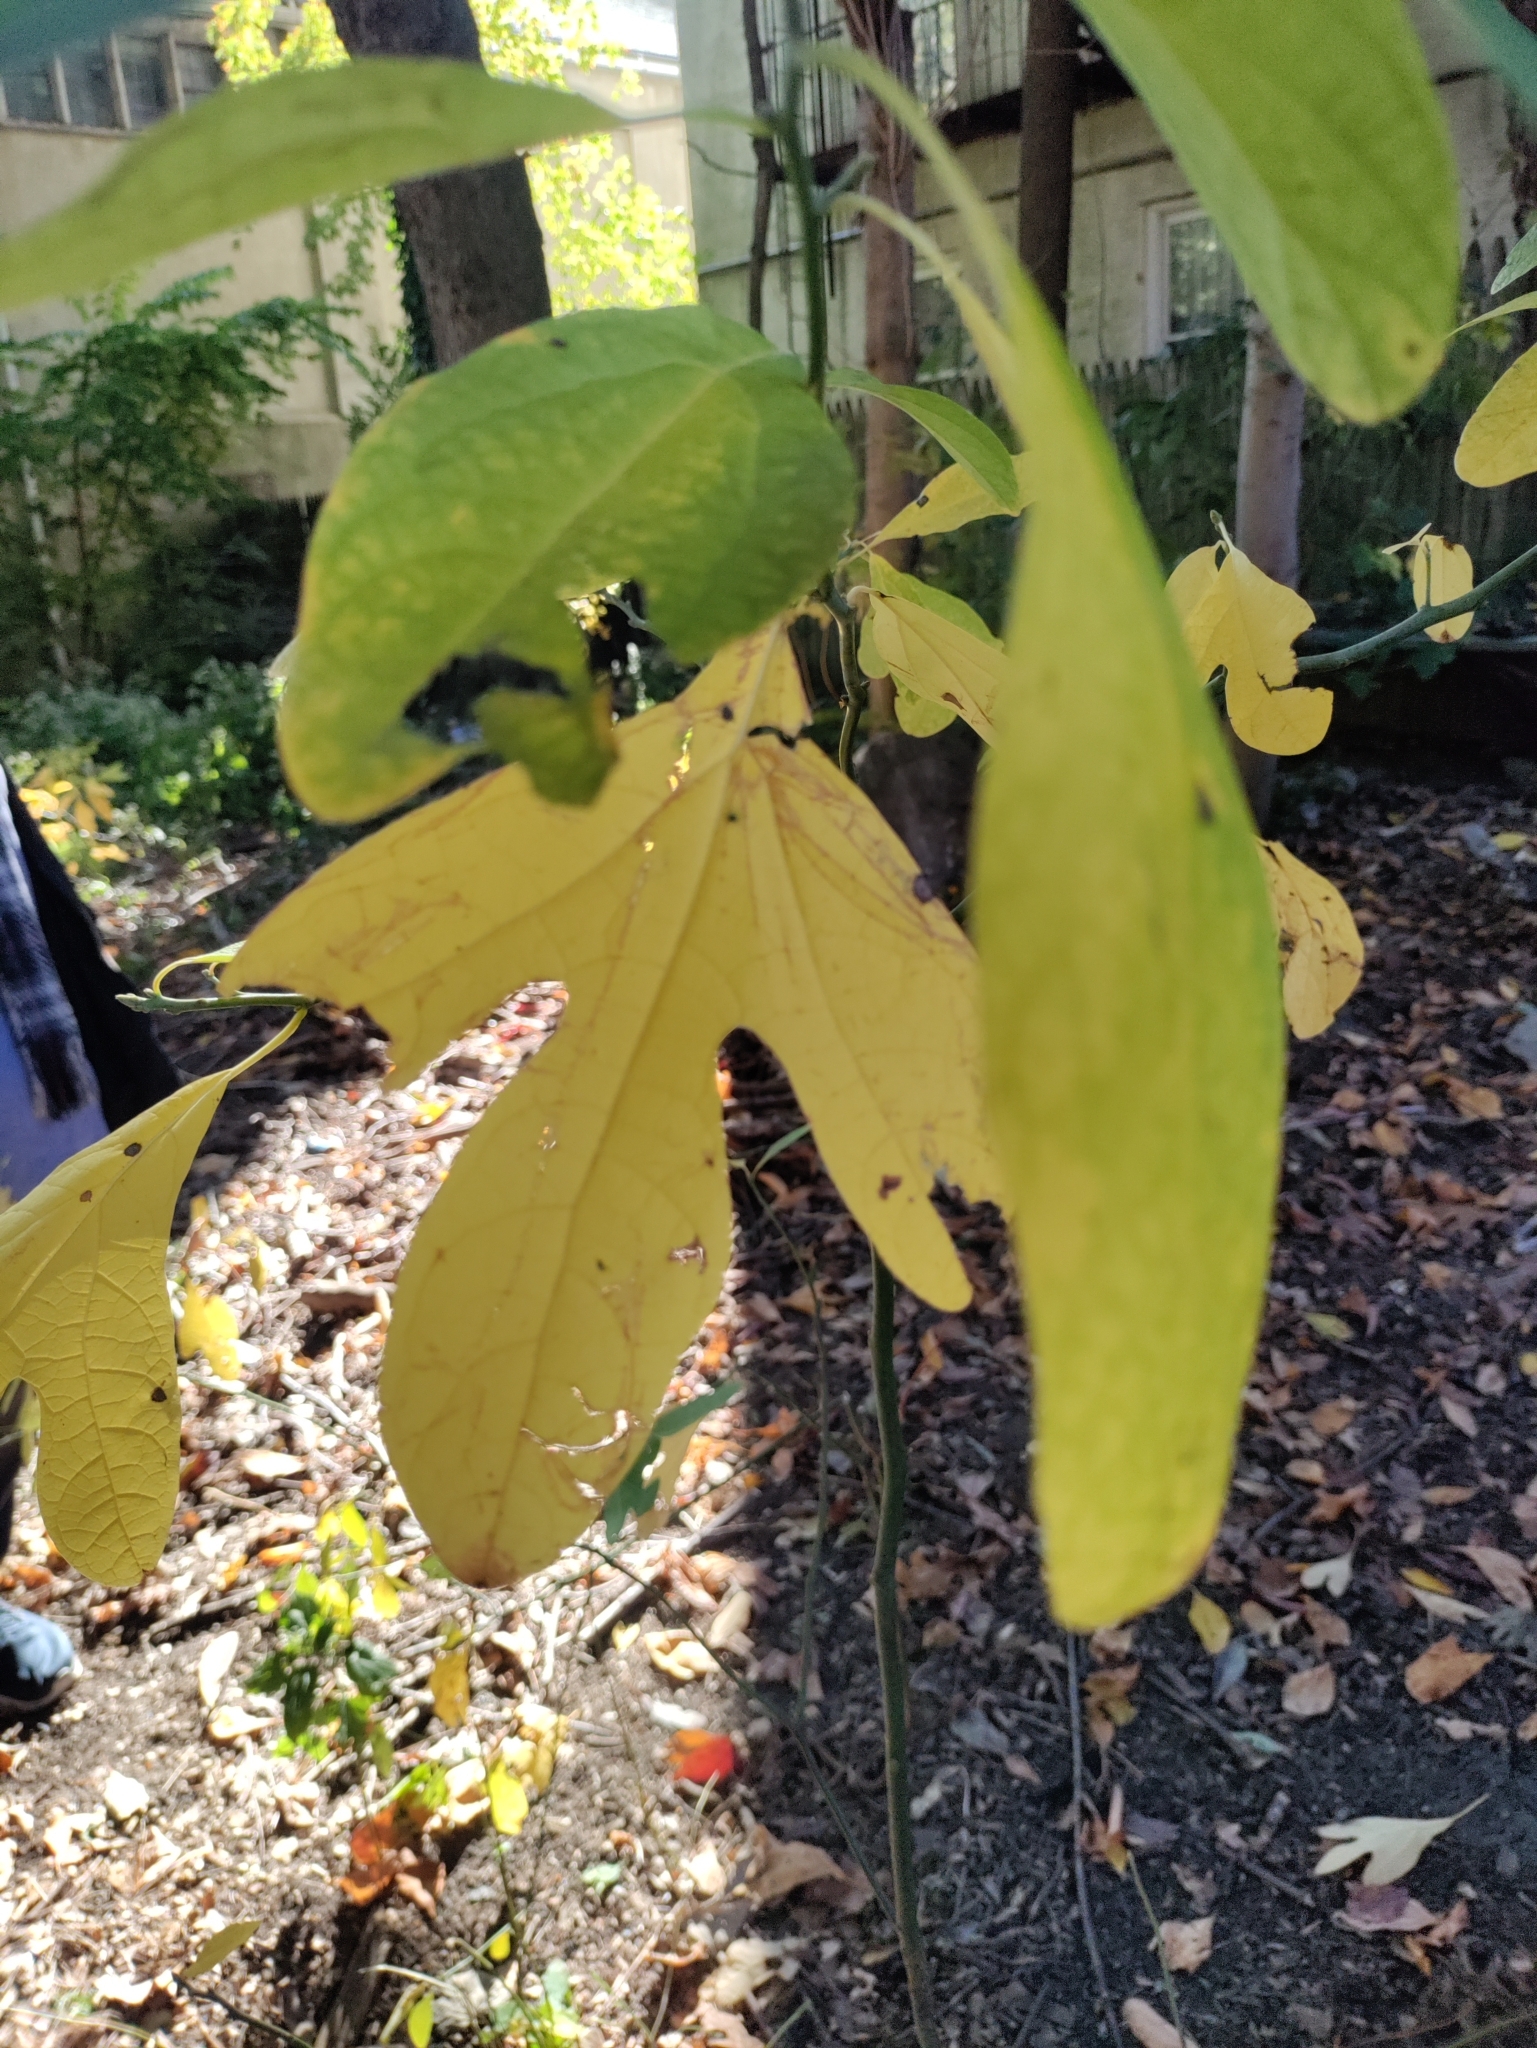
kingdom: Plantae
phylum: Tracheophyta
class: Magnoliopsida
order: Laurales
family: Lauraceae
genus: Sassafras
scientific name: Sassafras albidum
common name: Sassafras
